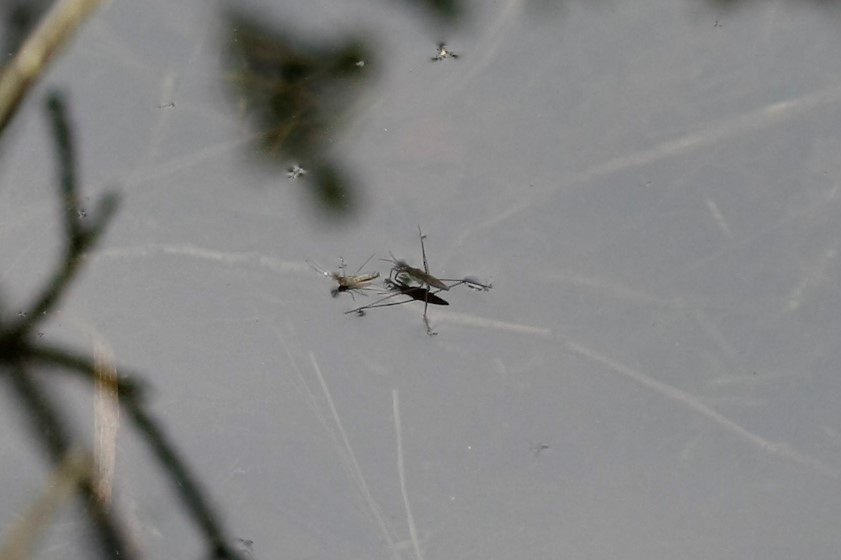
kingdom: Animalia
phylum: Arthropoda
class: Insecta
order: Hemiptera
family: Gerridae
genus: Gerris
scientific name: Gerris
